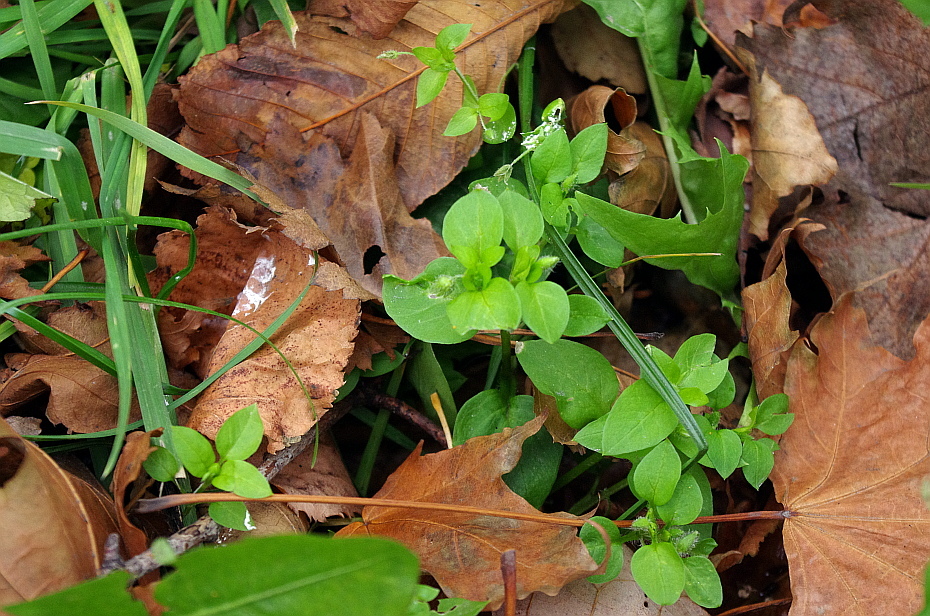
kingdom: Plantae
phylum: Tracheophyta
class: Magnoliopsida
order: Caryophyllales
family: Caryophyllaceae
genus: Stellaria
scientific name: Stellaria media
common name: Common chickweed
